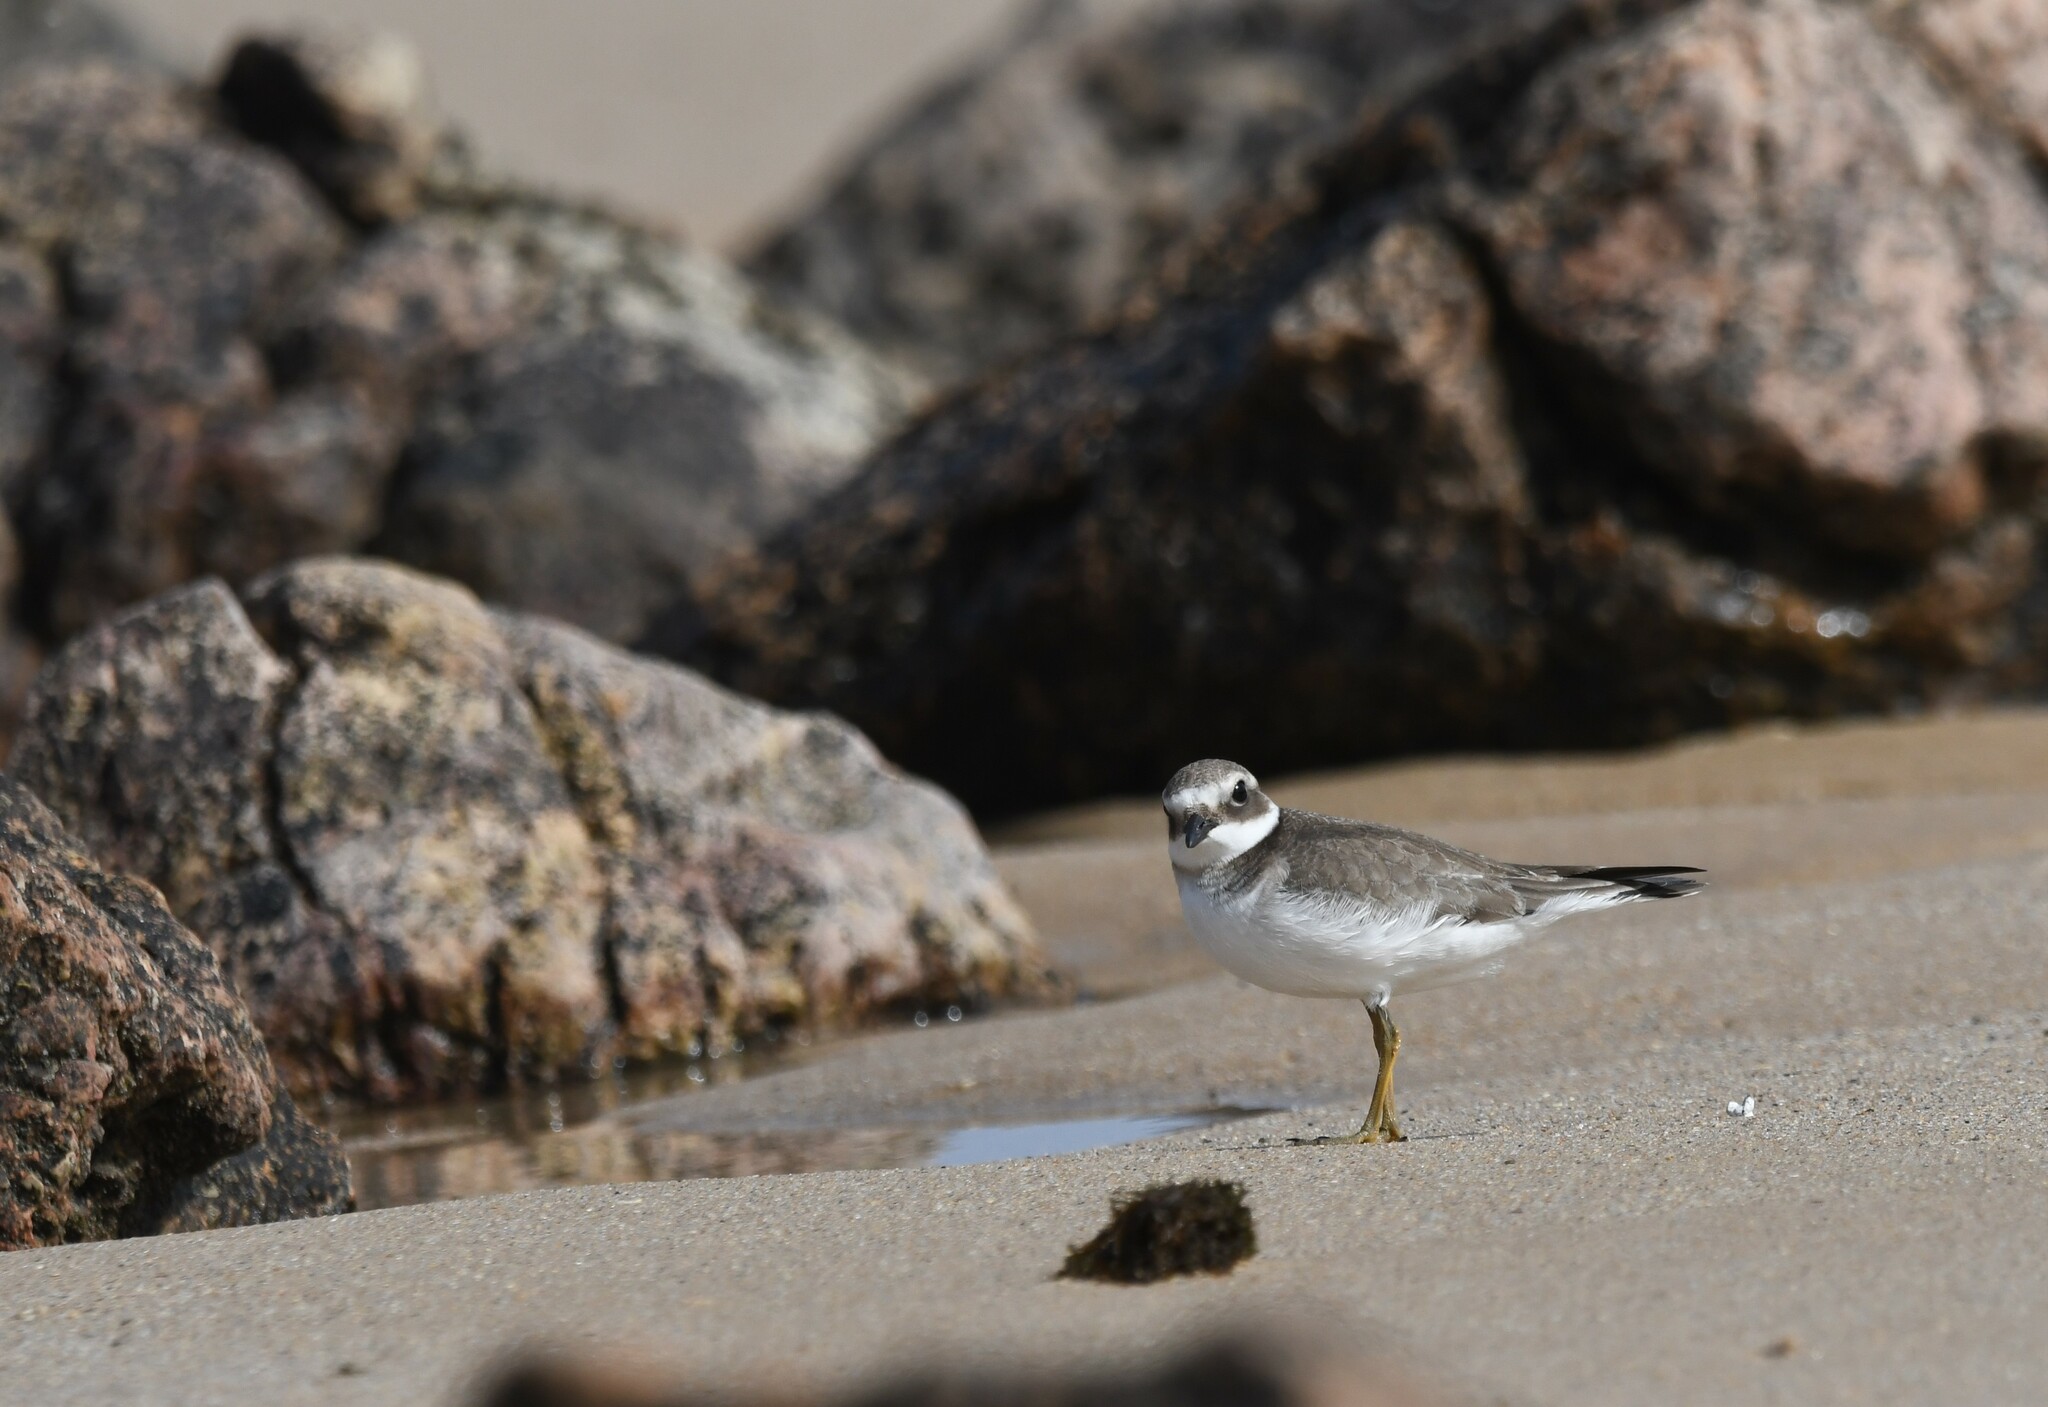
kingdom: Animalia
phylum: Chordata
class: Aves
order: Charadriiformes
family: Charadriidae
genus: Charadrius
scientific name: Charadrius hiaticula
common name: Common ringed plover
